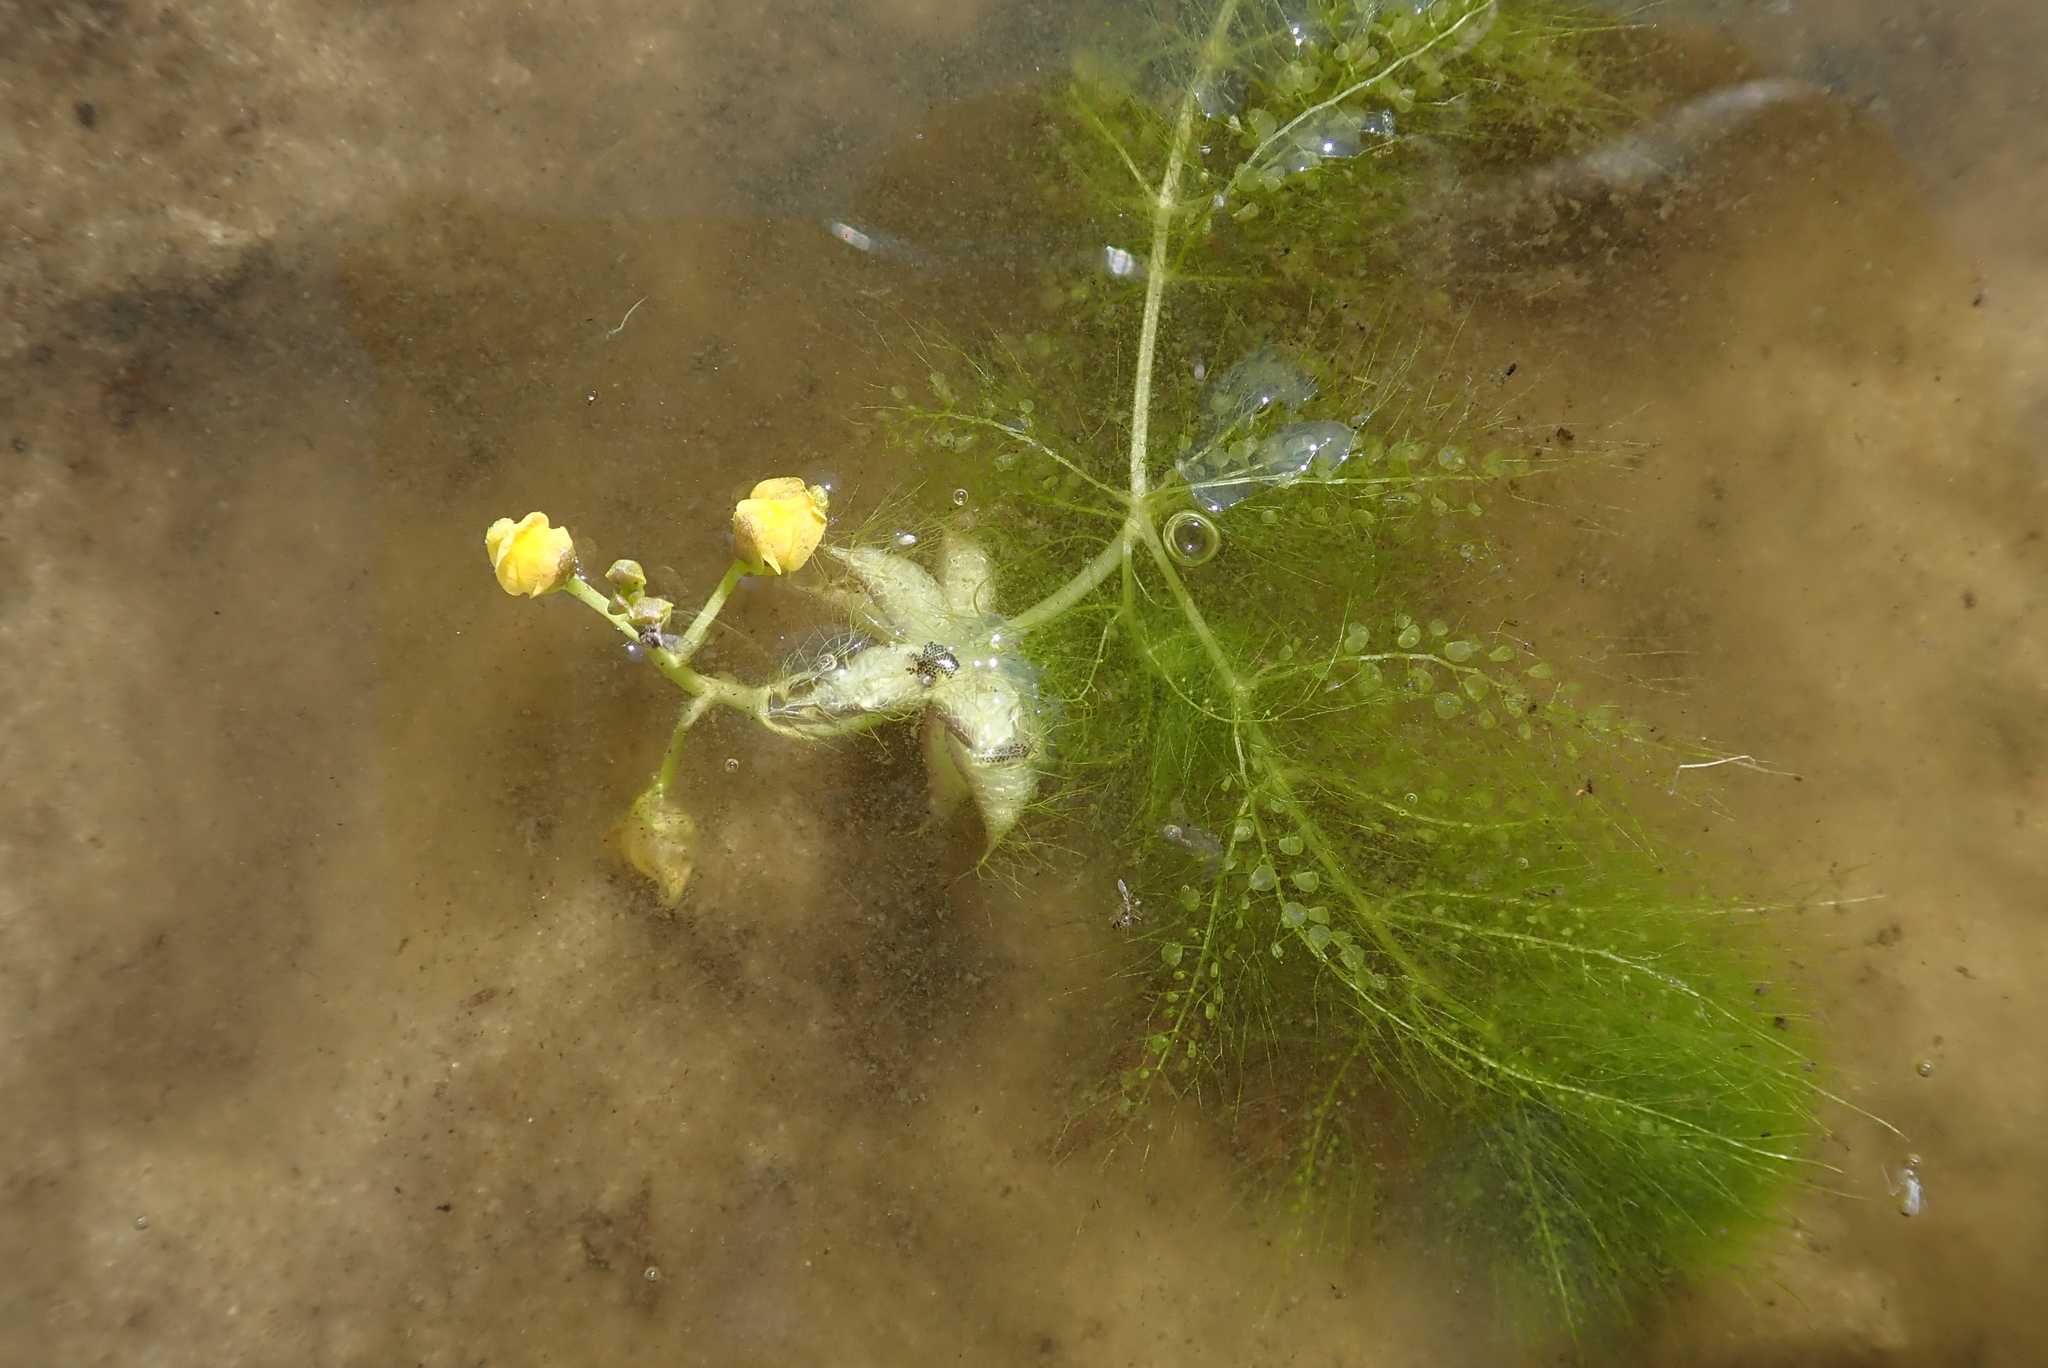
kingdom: Plantae
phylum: Tracheophyta
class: Magnoliopsida
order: Lamiales
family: Lentibulariaceae
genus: Utricularia
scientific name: Utricularia stellaris
